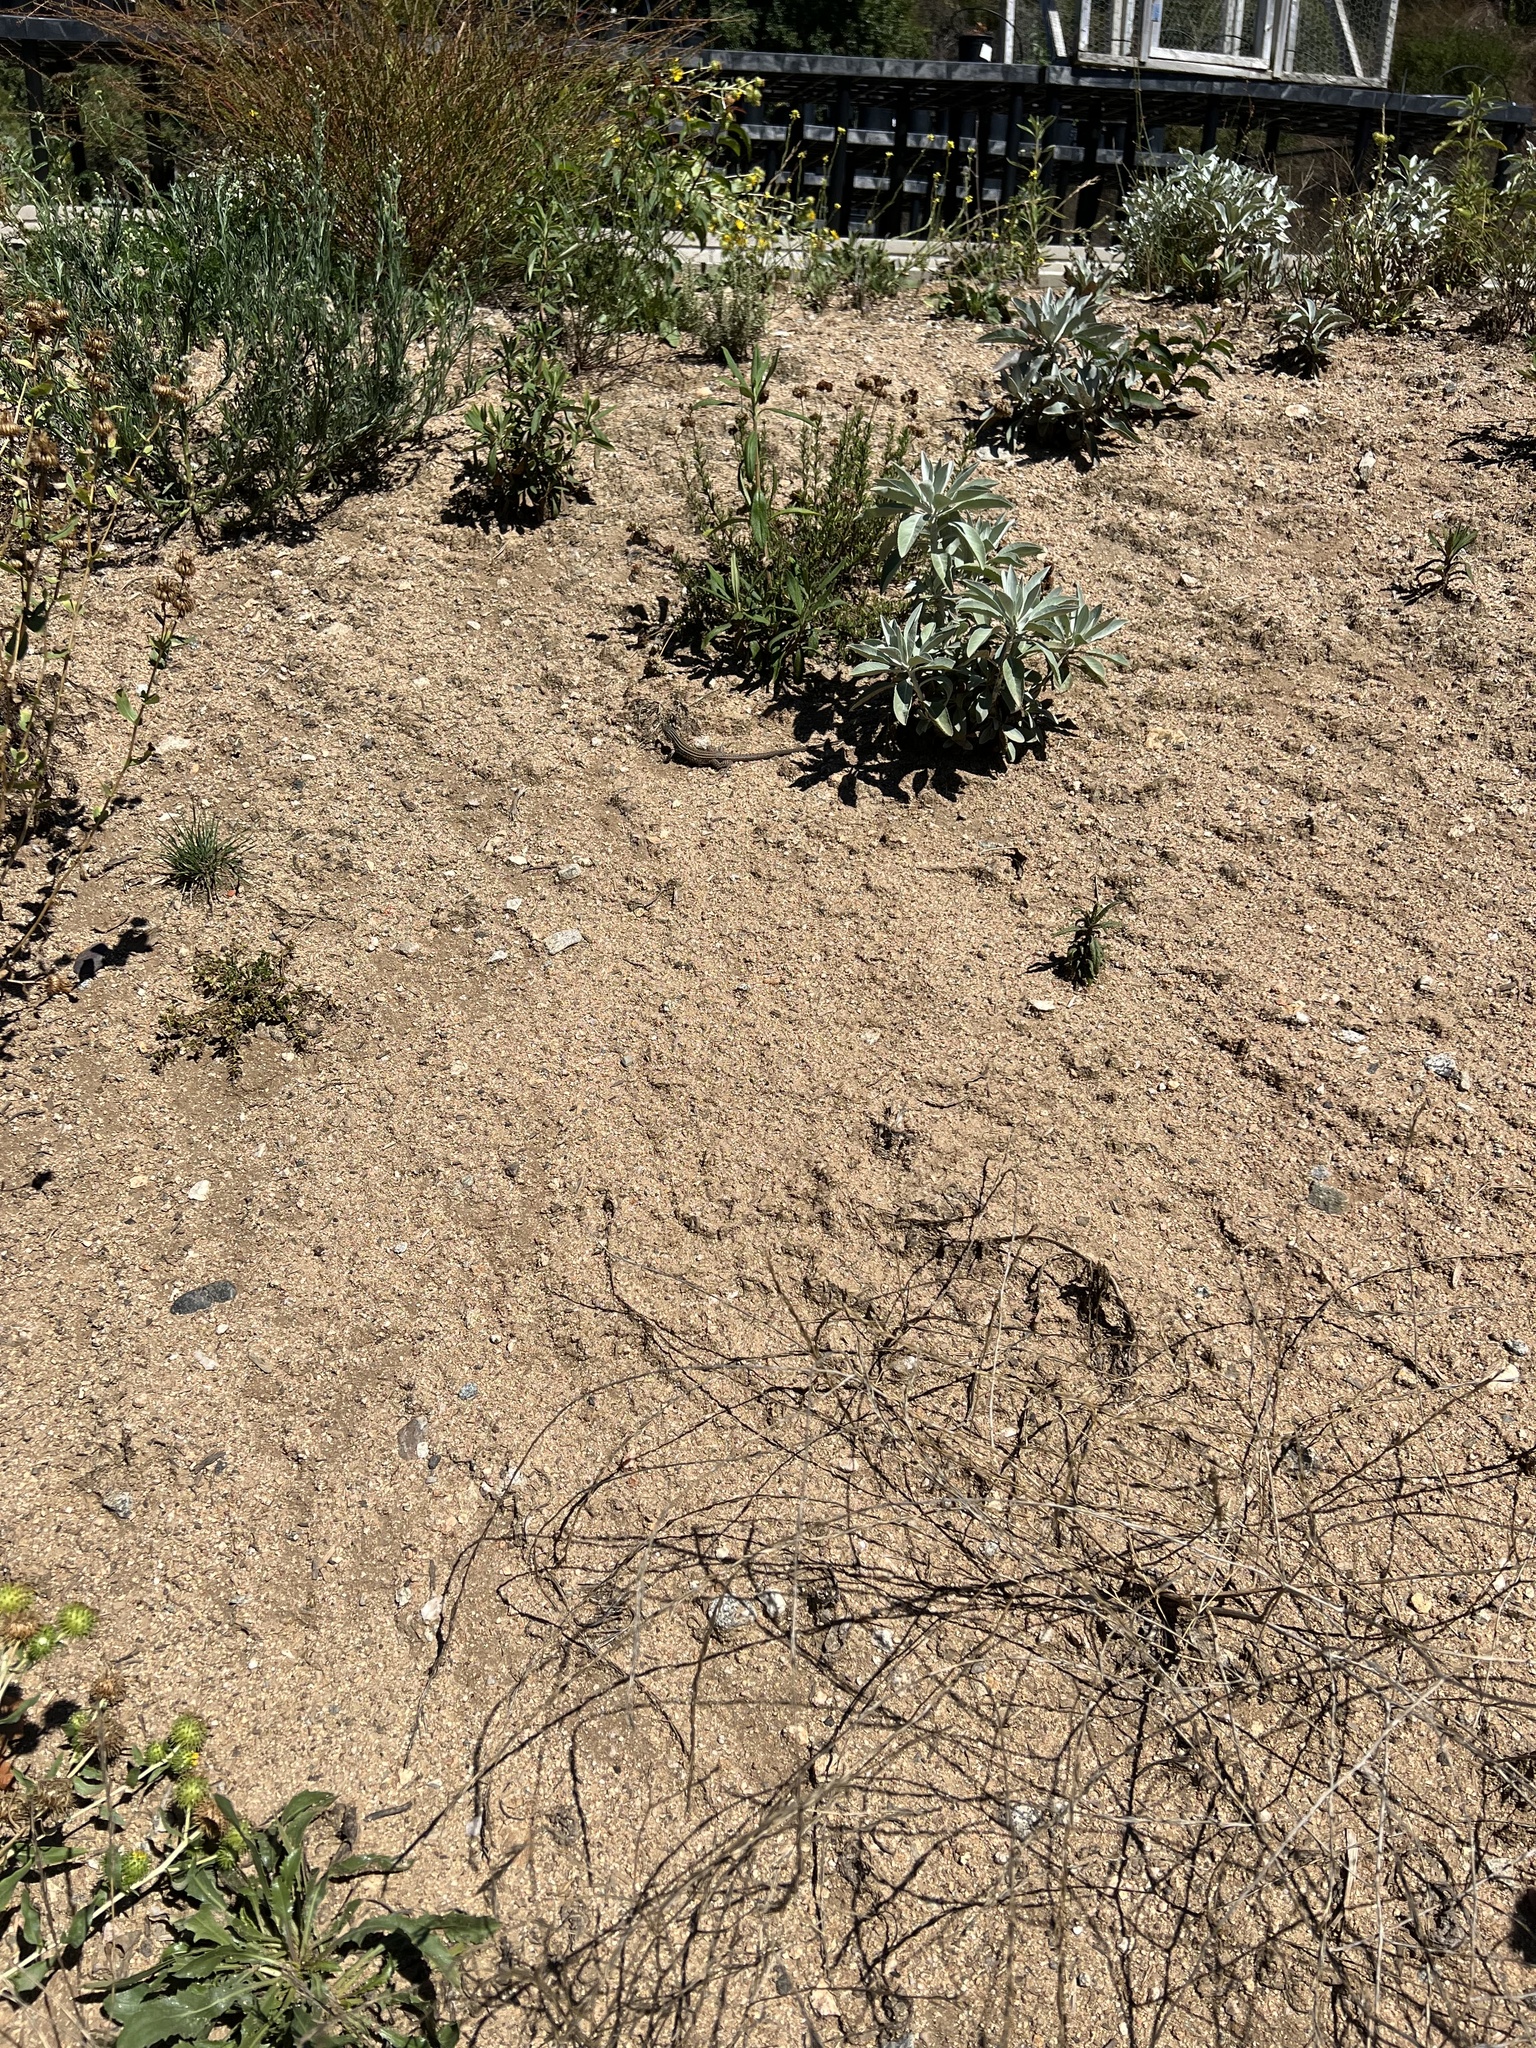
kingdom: Animalia
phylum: Chordata
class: Squamata
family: Teiidae
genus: Aspidoscelis
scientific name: Aspidoscelis tigris
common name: Tiger whiptail
